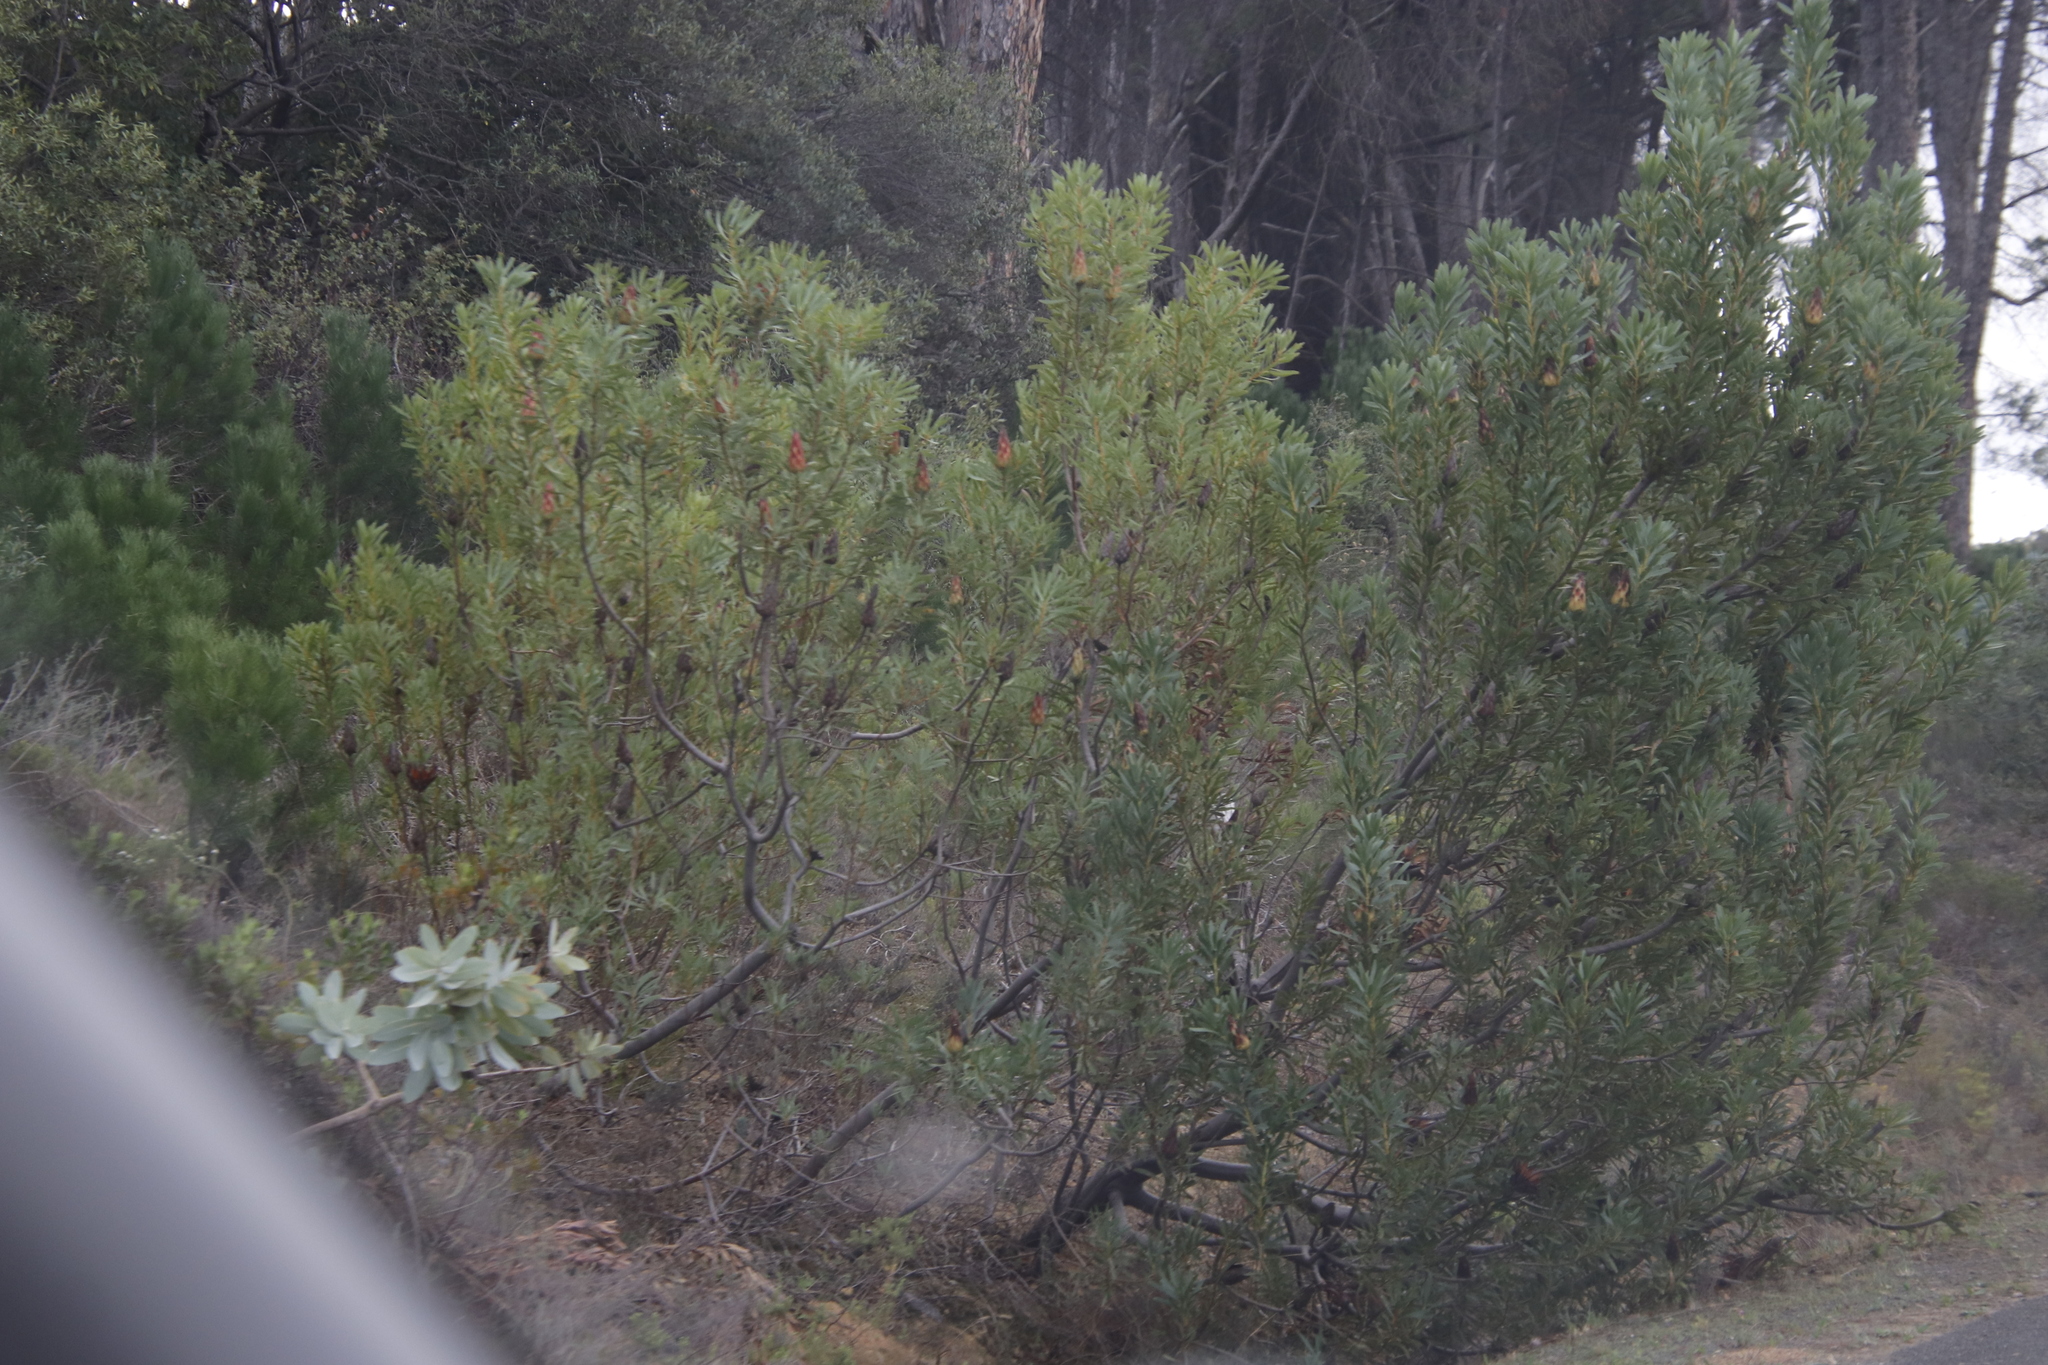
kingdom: Plantae
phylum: Tracheophyta
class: Magnoliopsida
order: Proteales
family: Proteaceae
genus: Protea
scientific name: Protea repens
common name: Sugarbush
